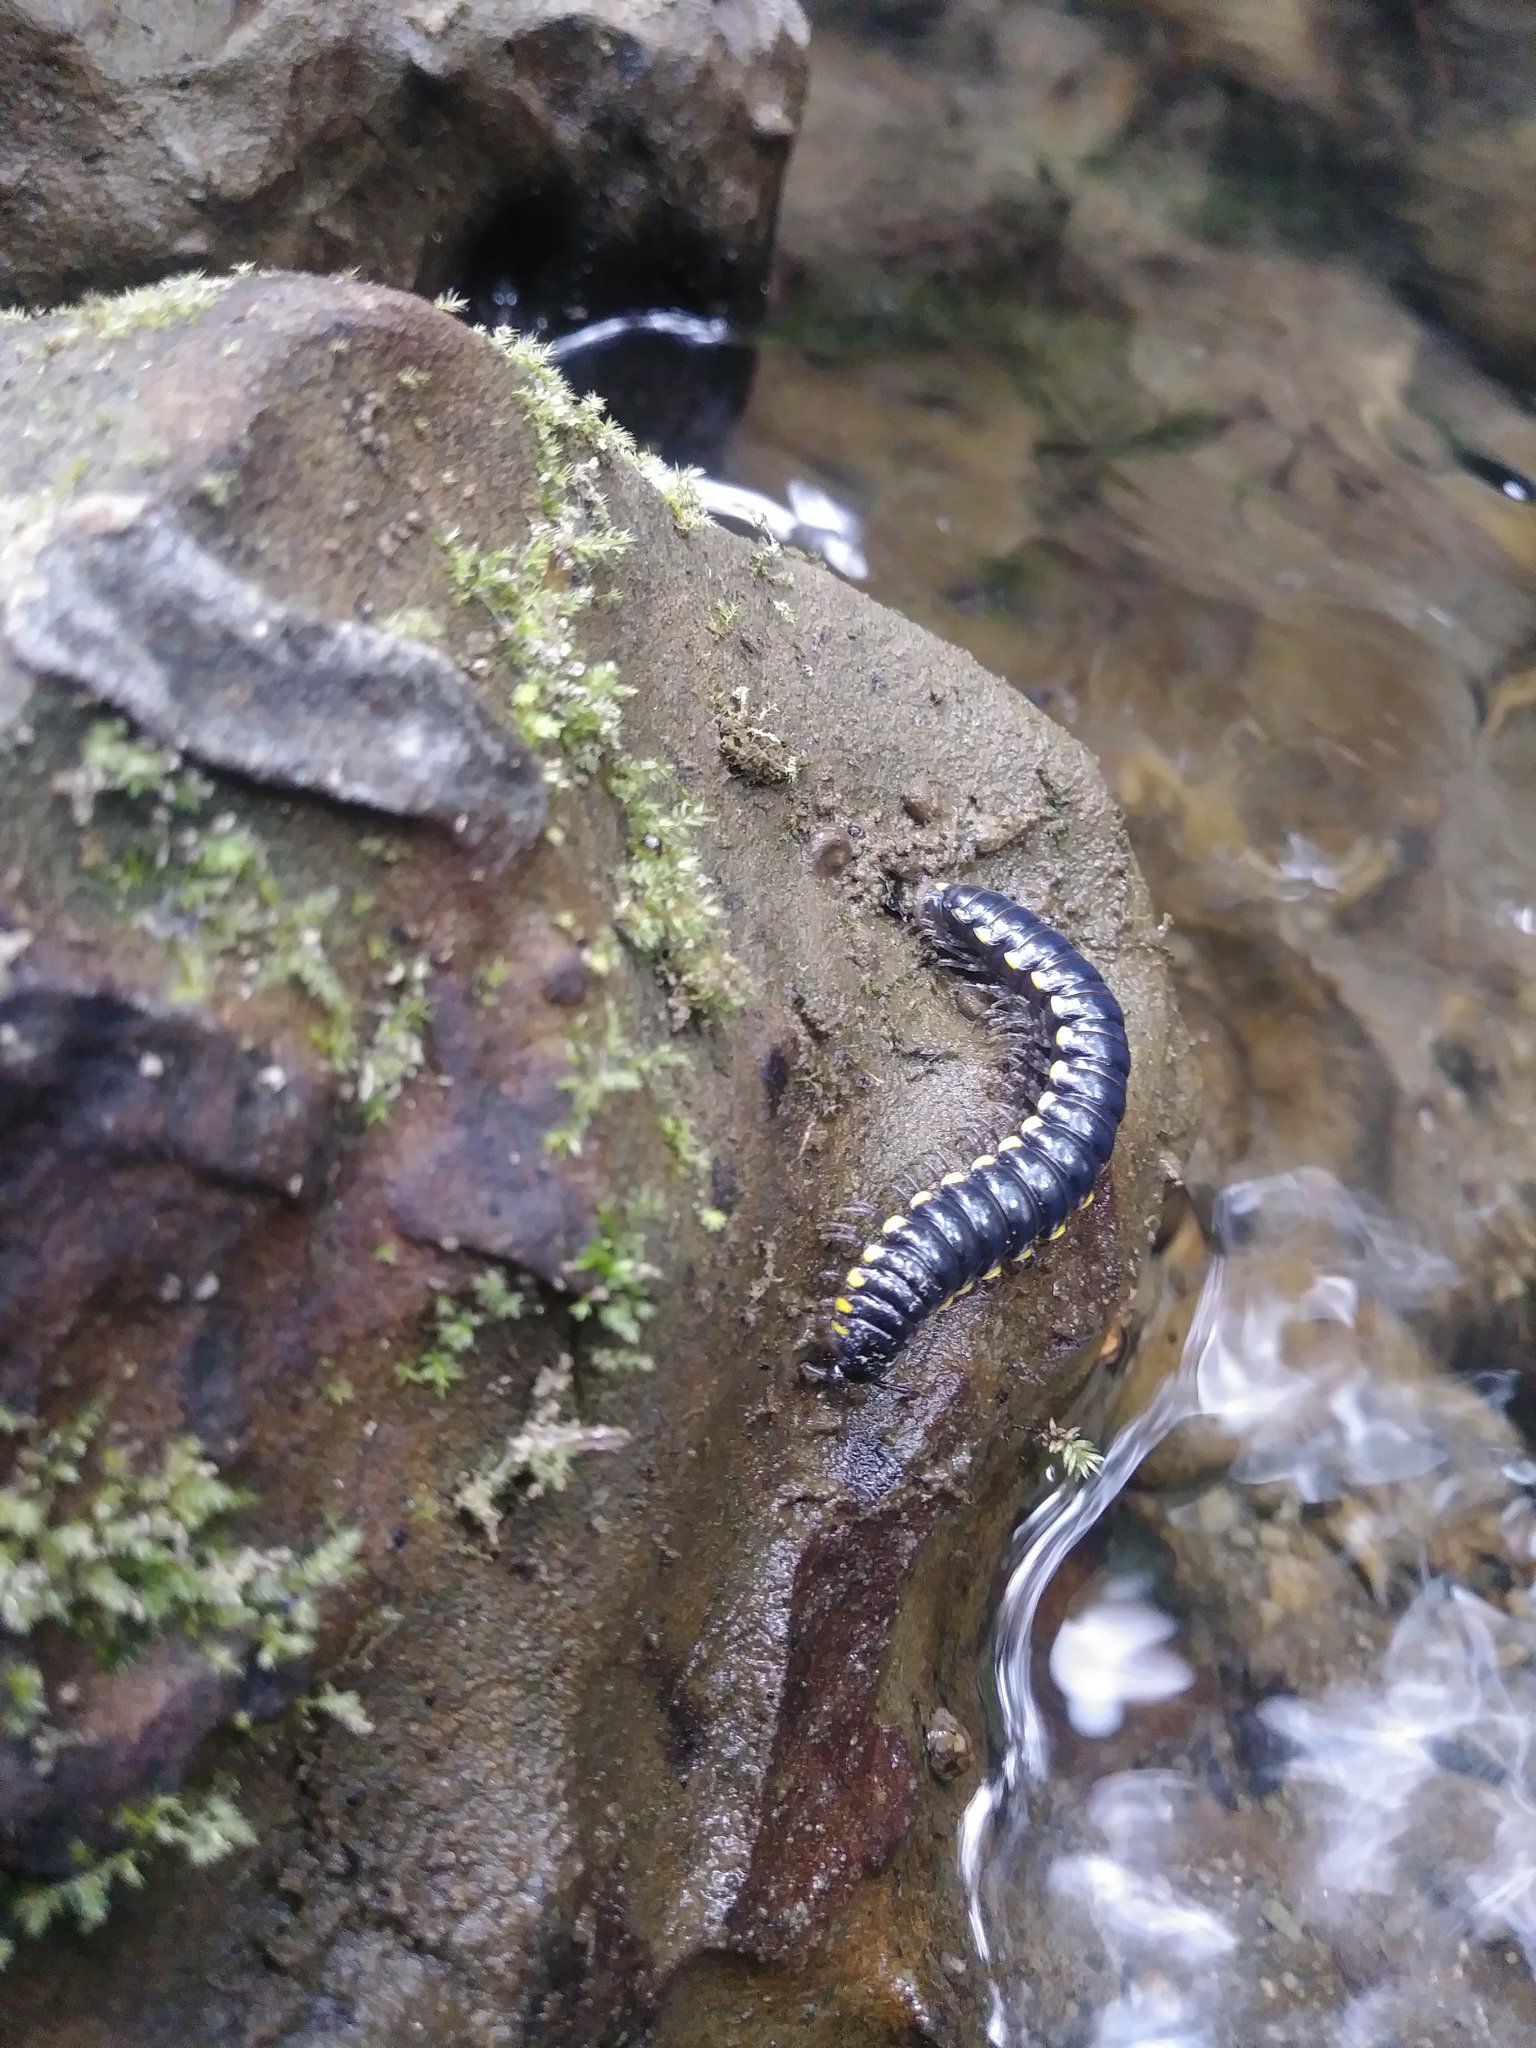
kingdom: Animalia
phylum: Arthropoda
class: Diplopoda
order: Polydesmida
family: Xystodesmidae
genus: Harpaphe
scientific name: Harpaphe haydeniana
